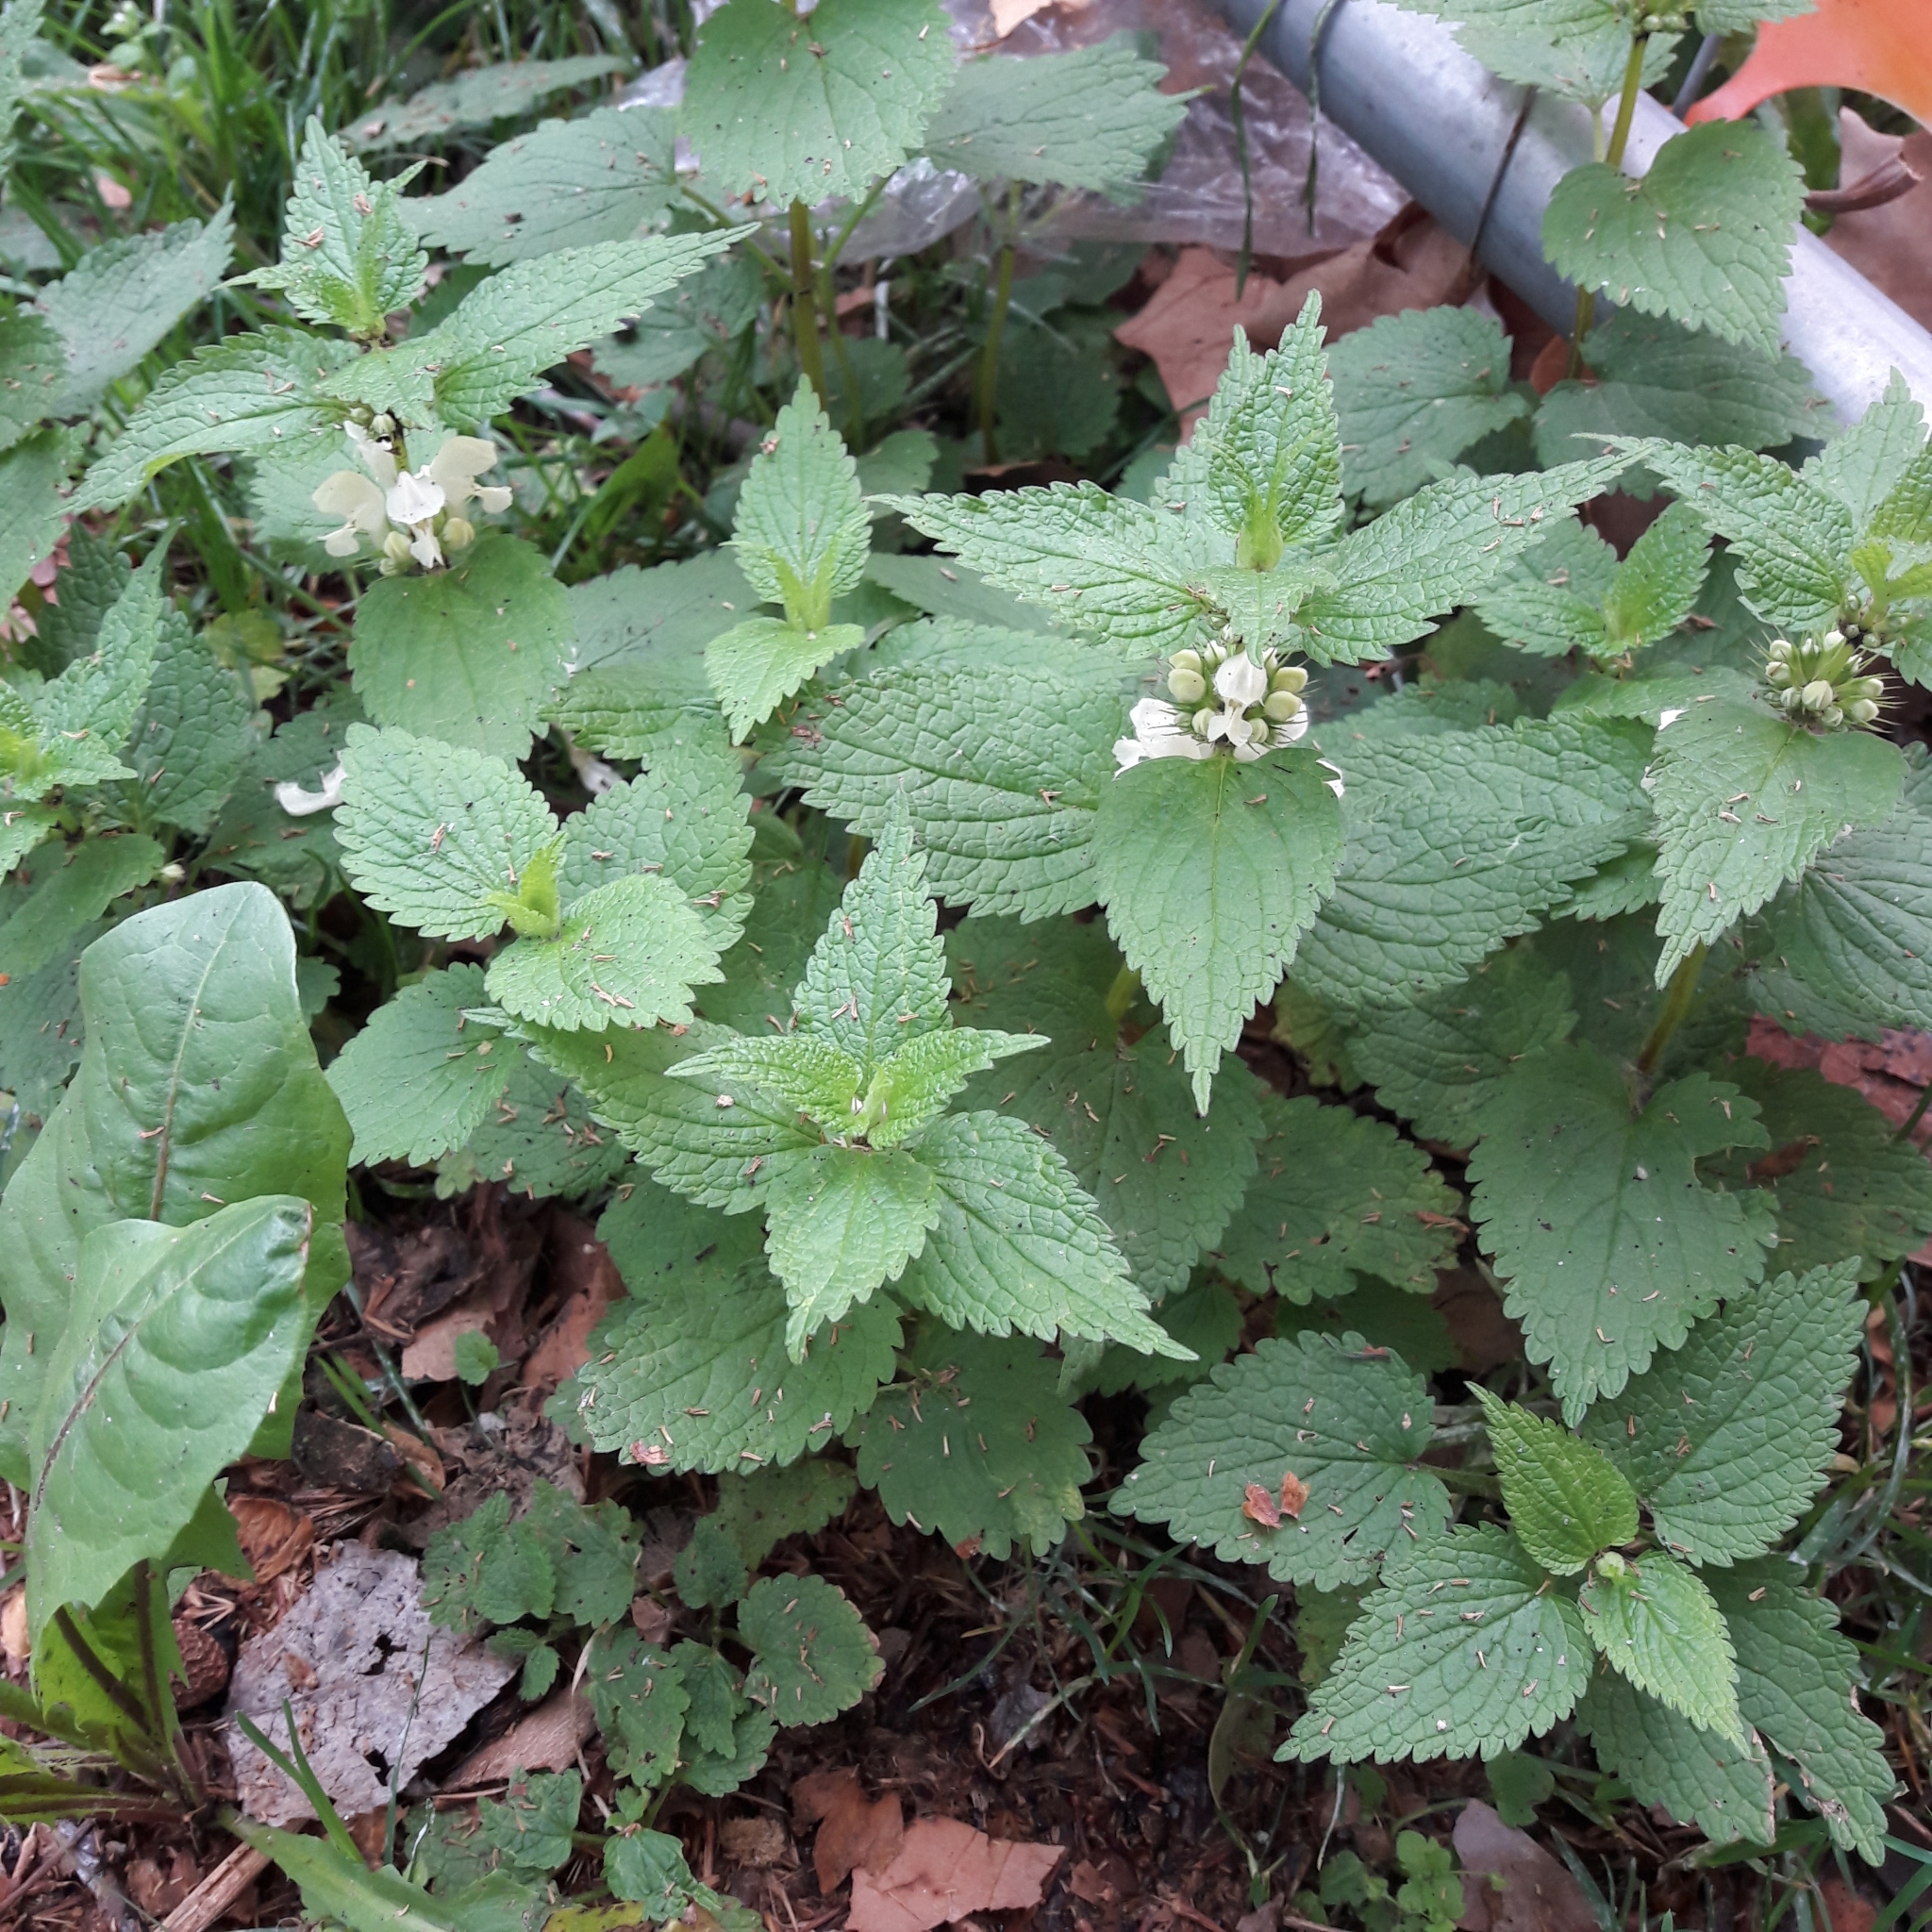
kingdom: Plantae
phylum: Tracheophyta
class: Magnoliopsida
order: Lamiales
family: Lamiaceae
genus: Lamium
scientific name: Lamium album
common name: White dead-nettle
